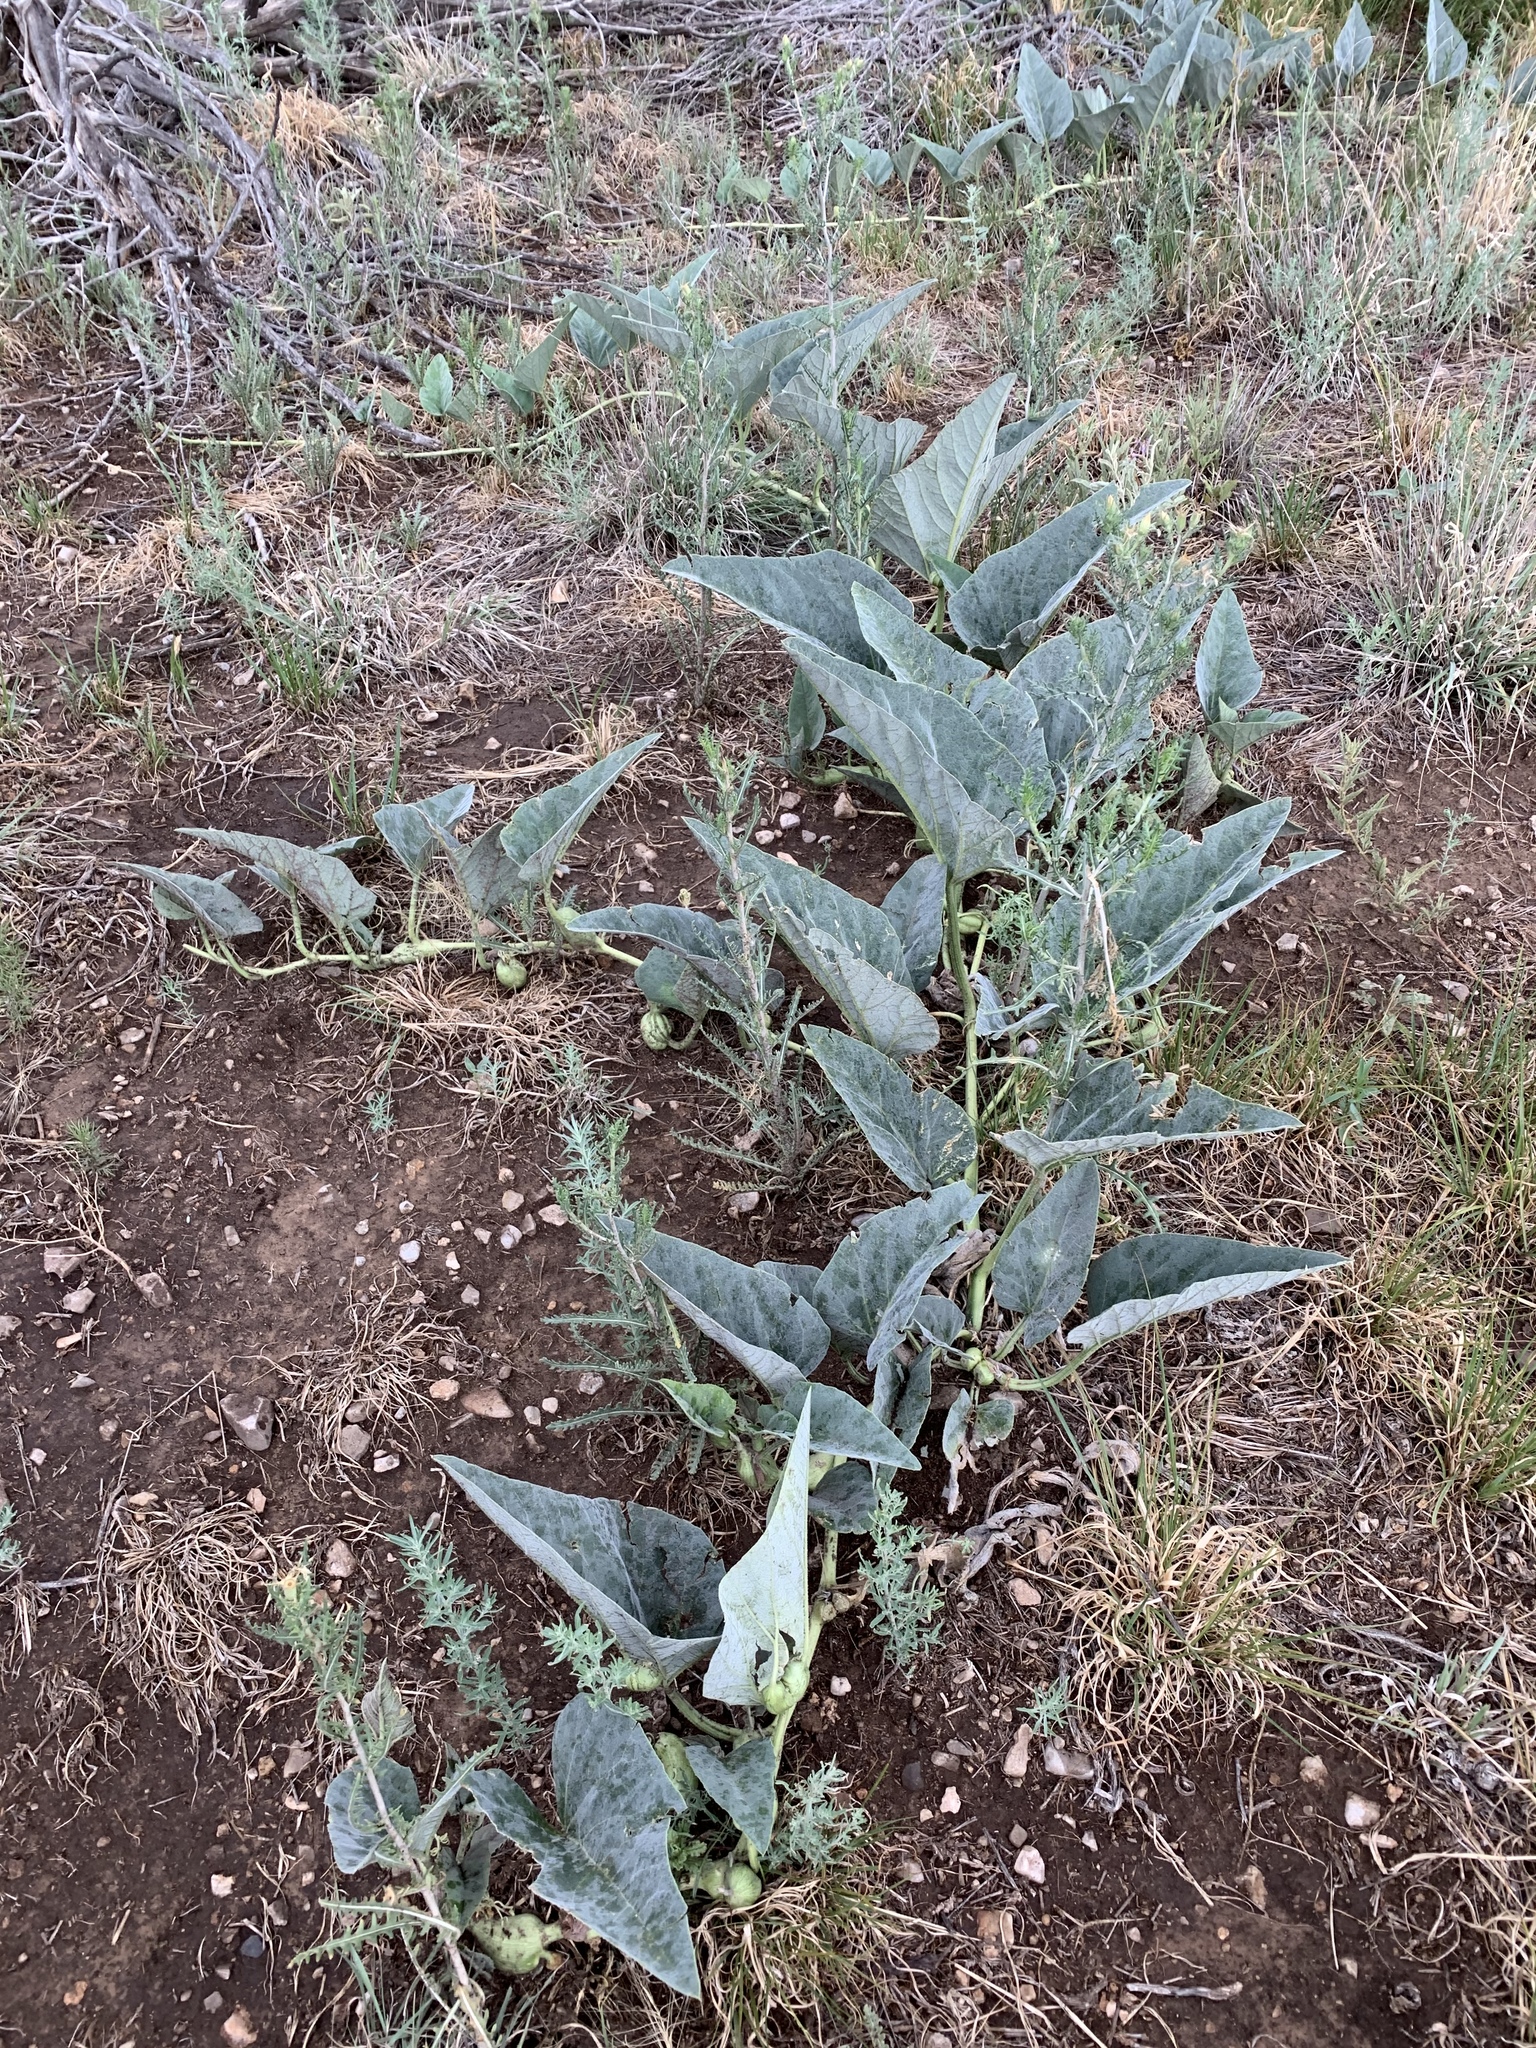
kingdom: Plantae
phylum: Tracheophyta
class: Magnoliopsida
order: Cucurbitales
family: Cucurbitaceae
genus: Cucurbita
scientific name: Cucurbita foetidissima
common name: Buffalo gourd
